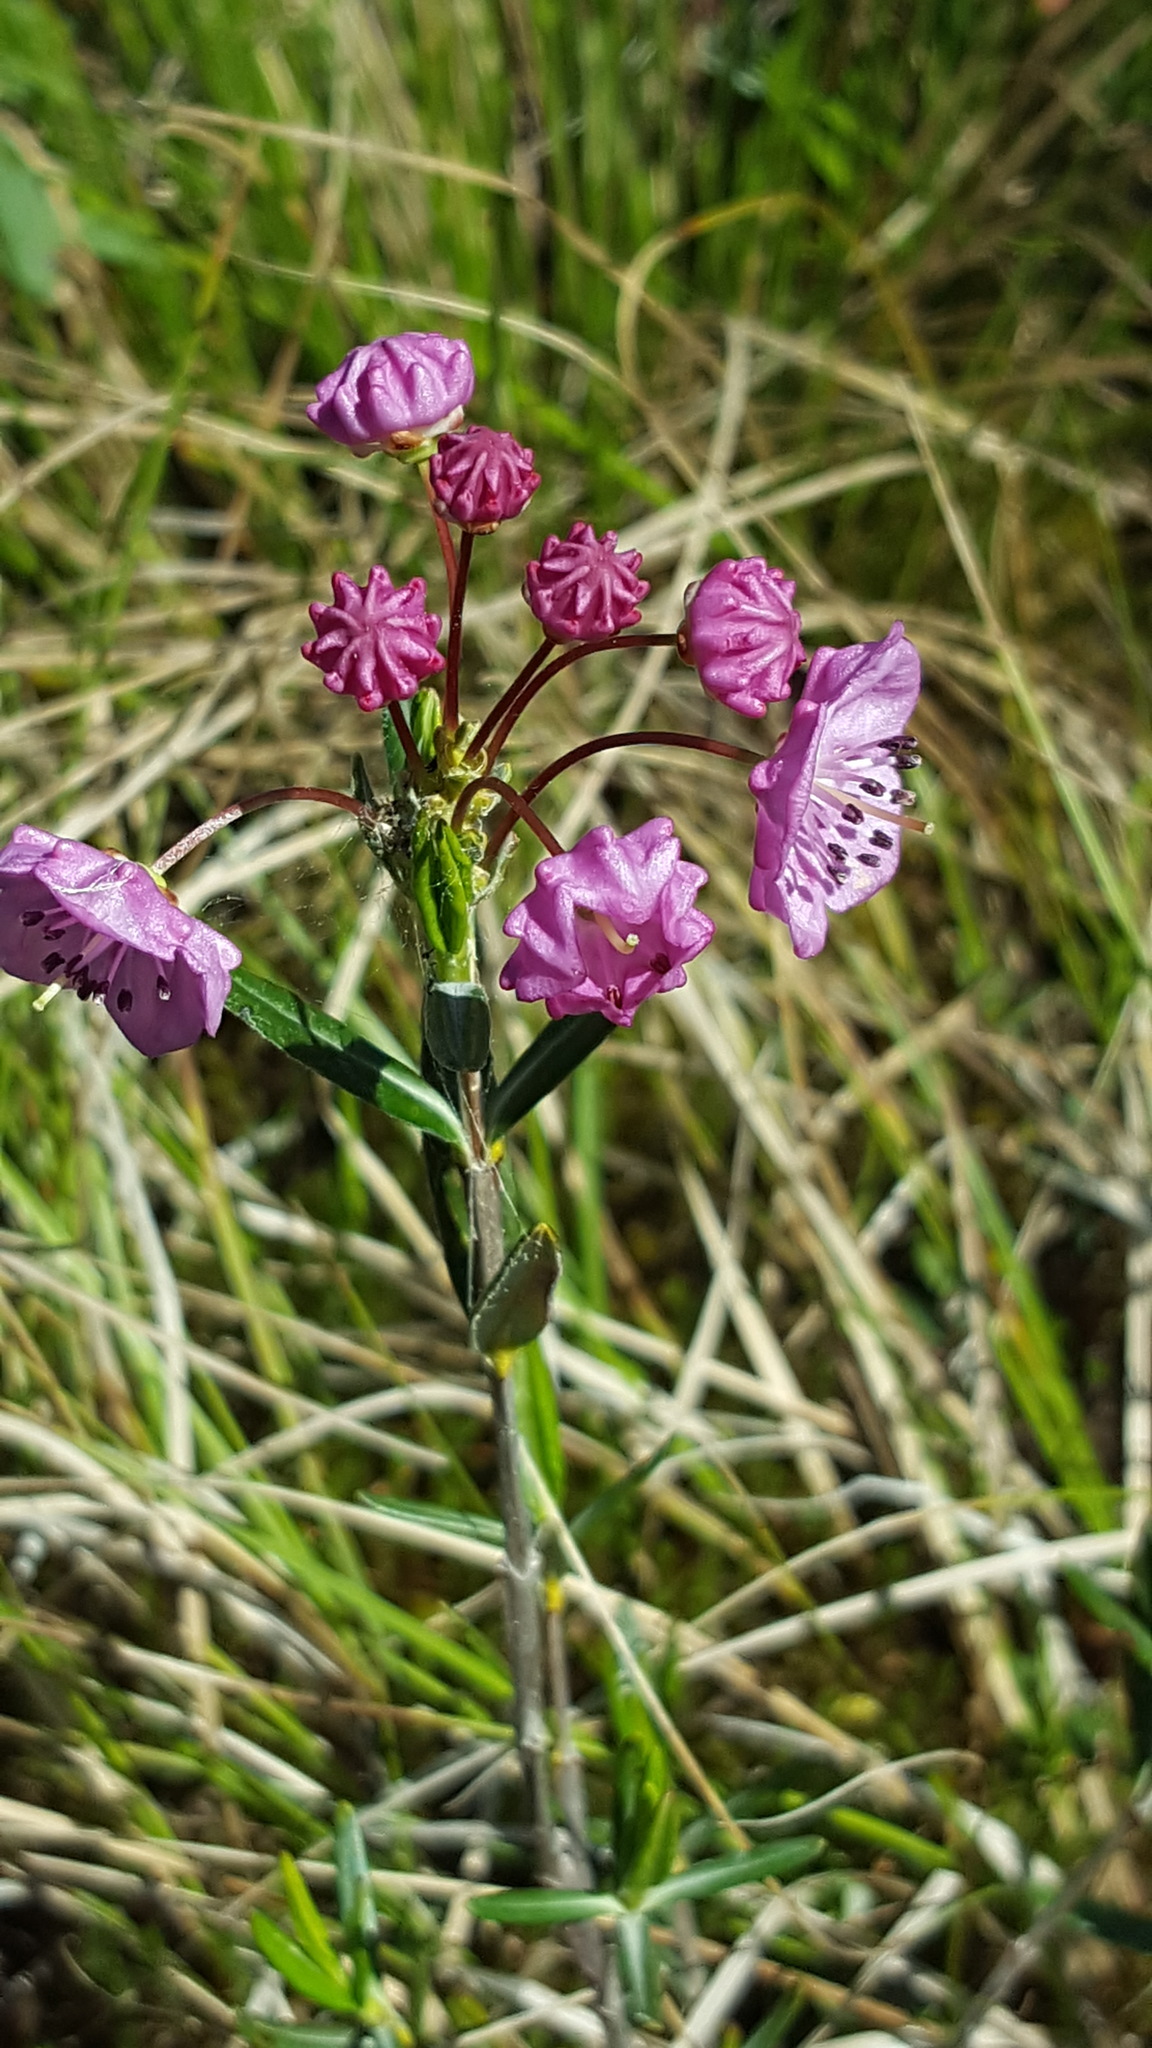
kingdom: Plantae
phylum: Tracheophyta
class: Magnoliopsida
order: Ericales
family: Ericaceae
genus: Kalmia
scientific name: Kalmia polifolia
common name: Bog-laurel
